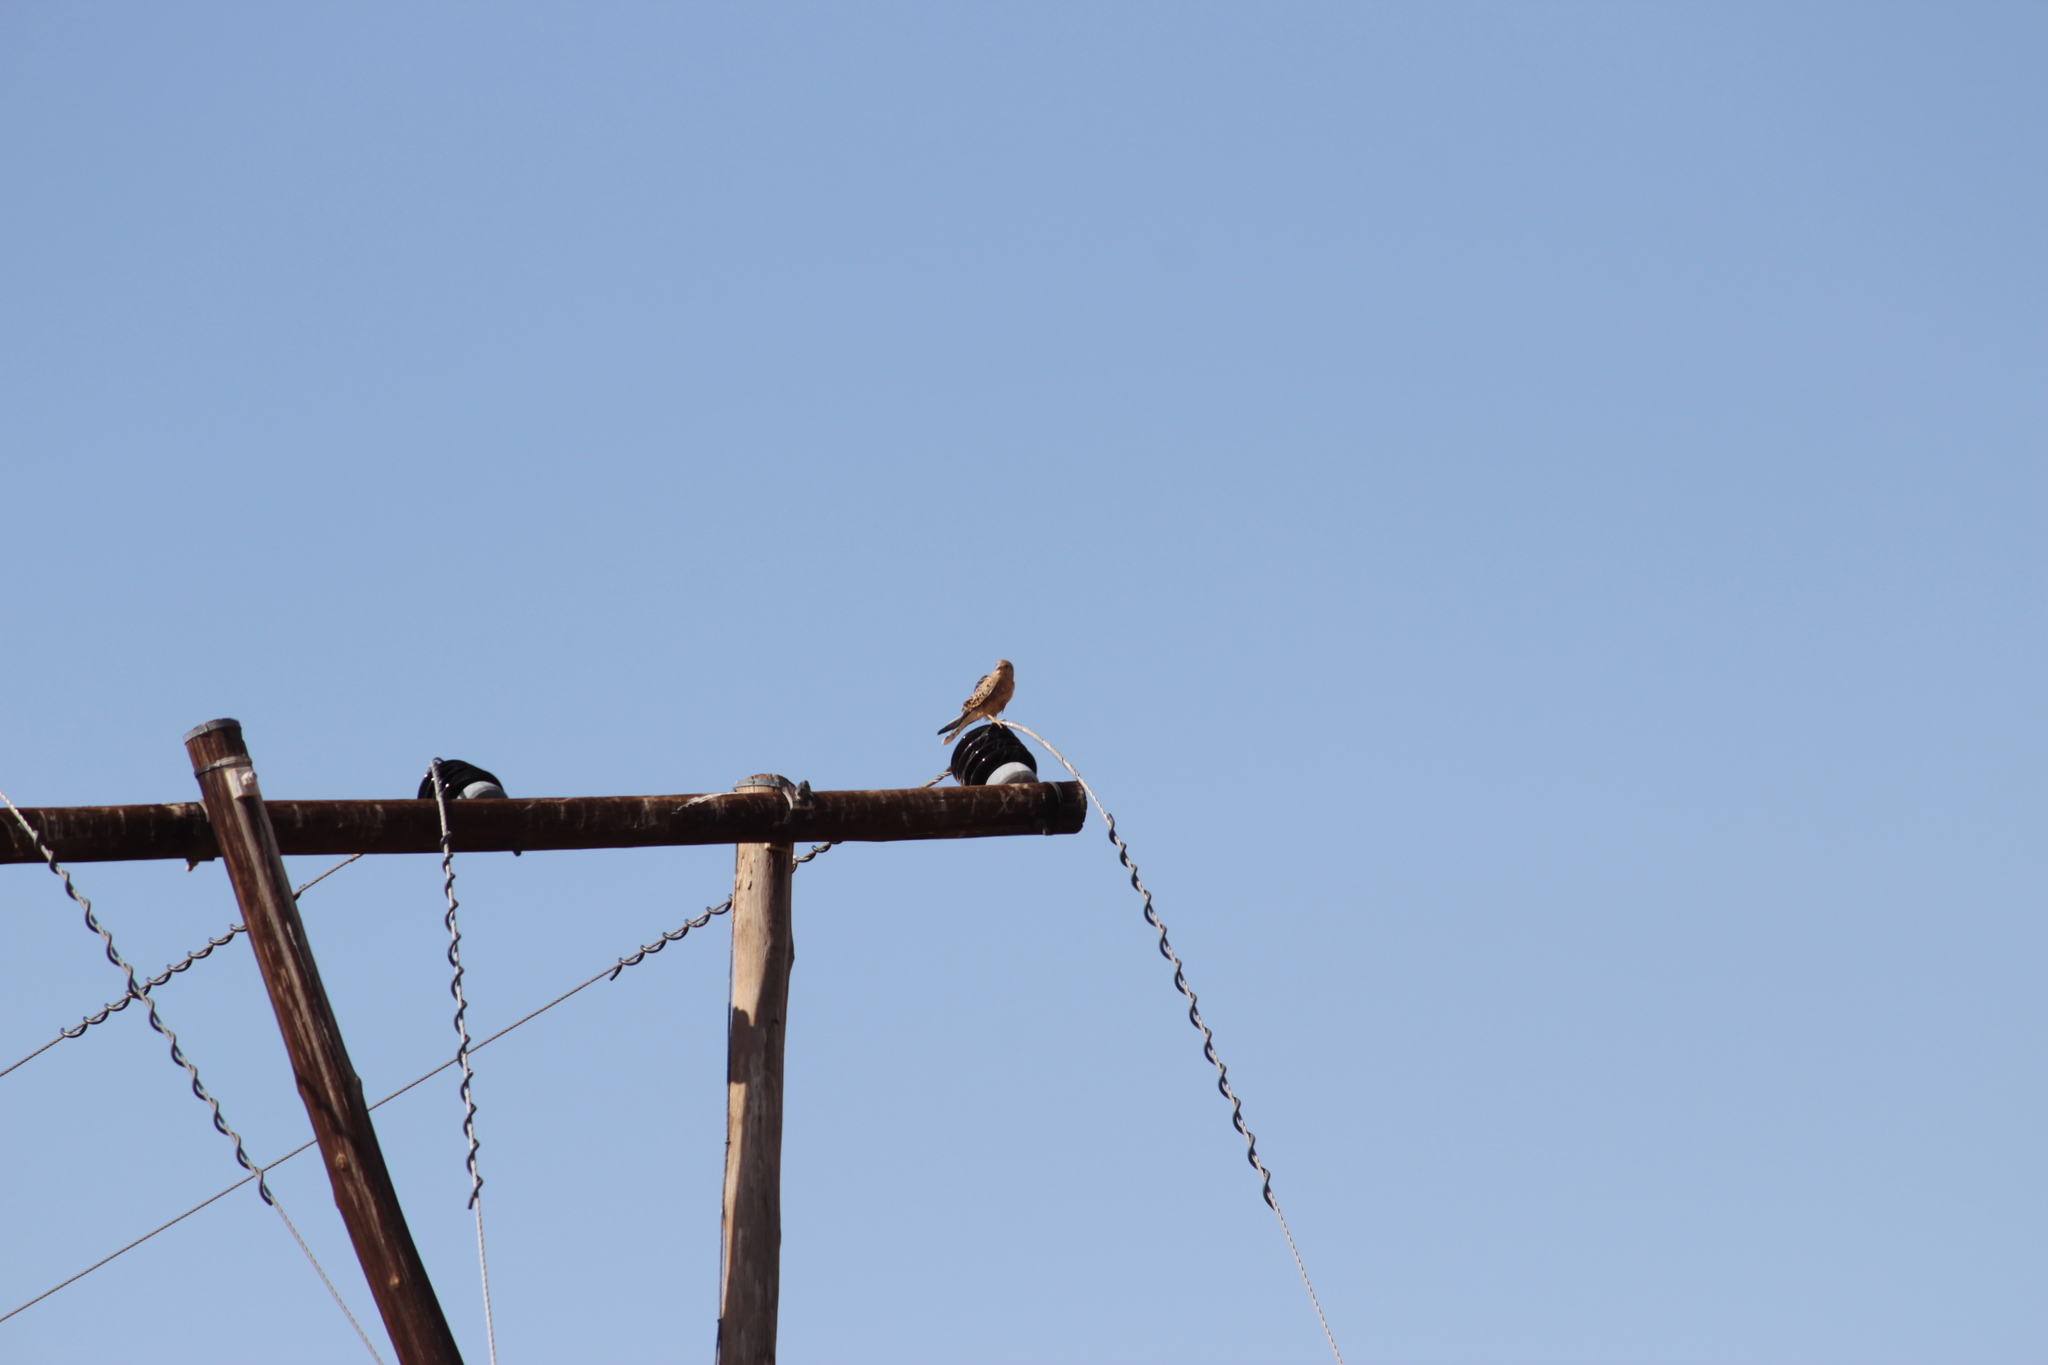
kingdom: Animalia
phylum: Chordata
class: Aves
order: Falconiformes
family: Falconidae
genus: Falco
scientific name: Falco rupicolus
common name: Rock kestrel
